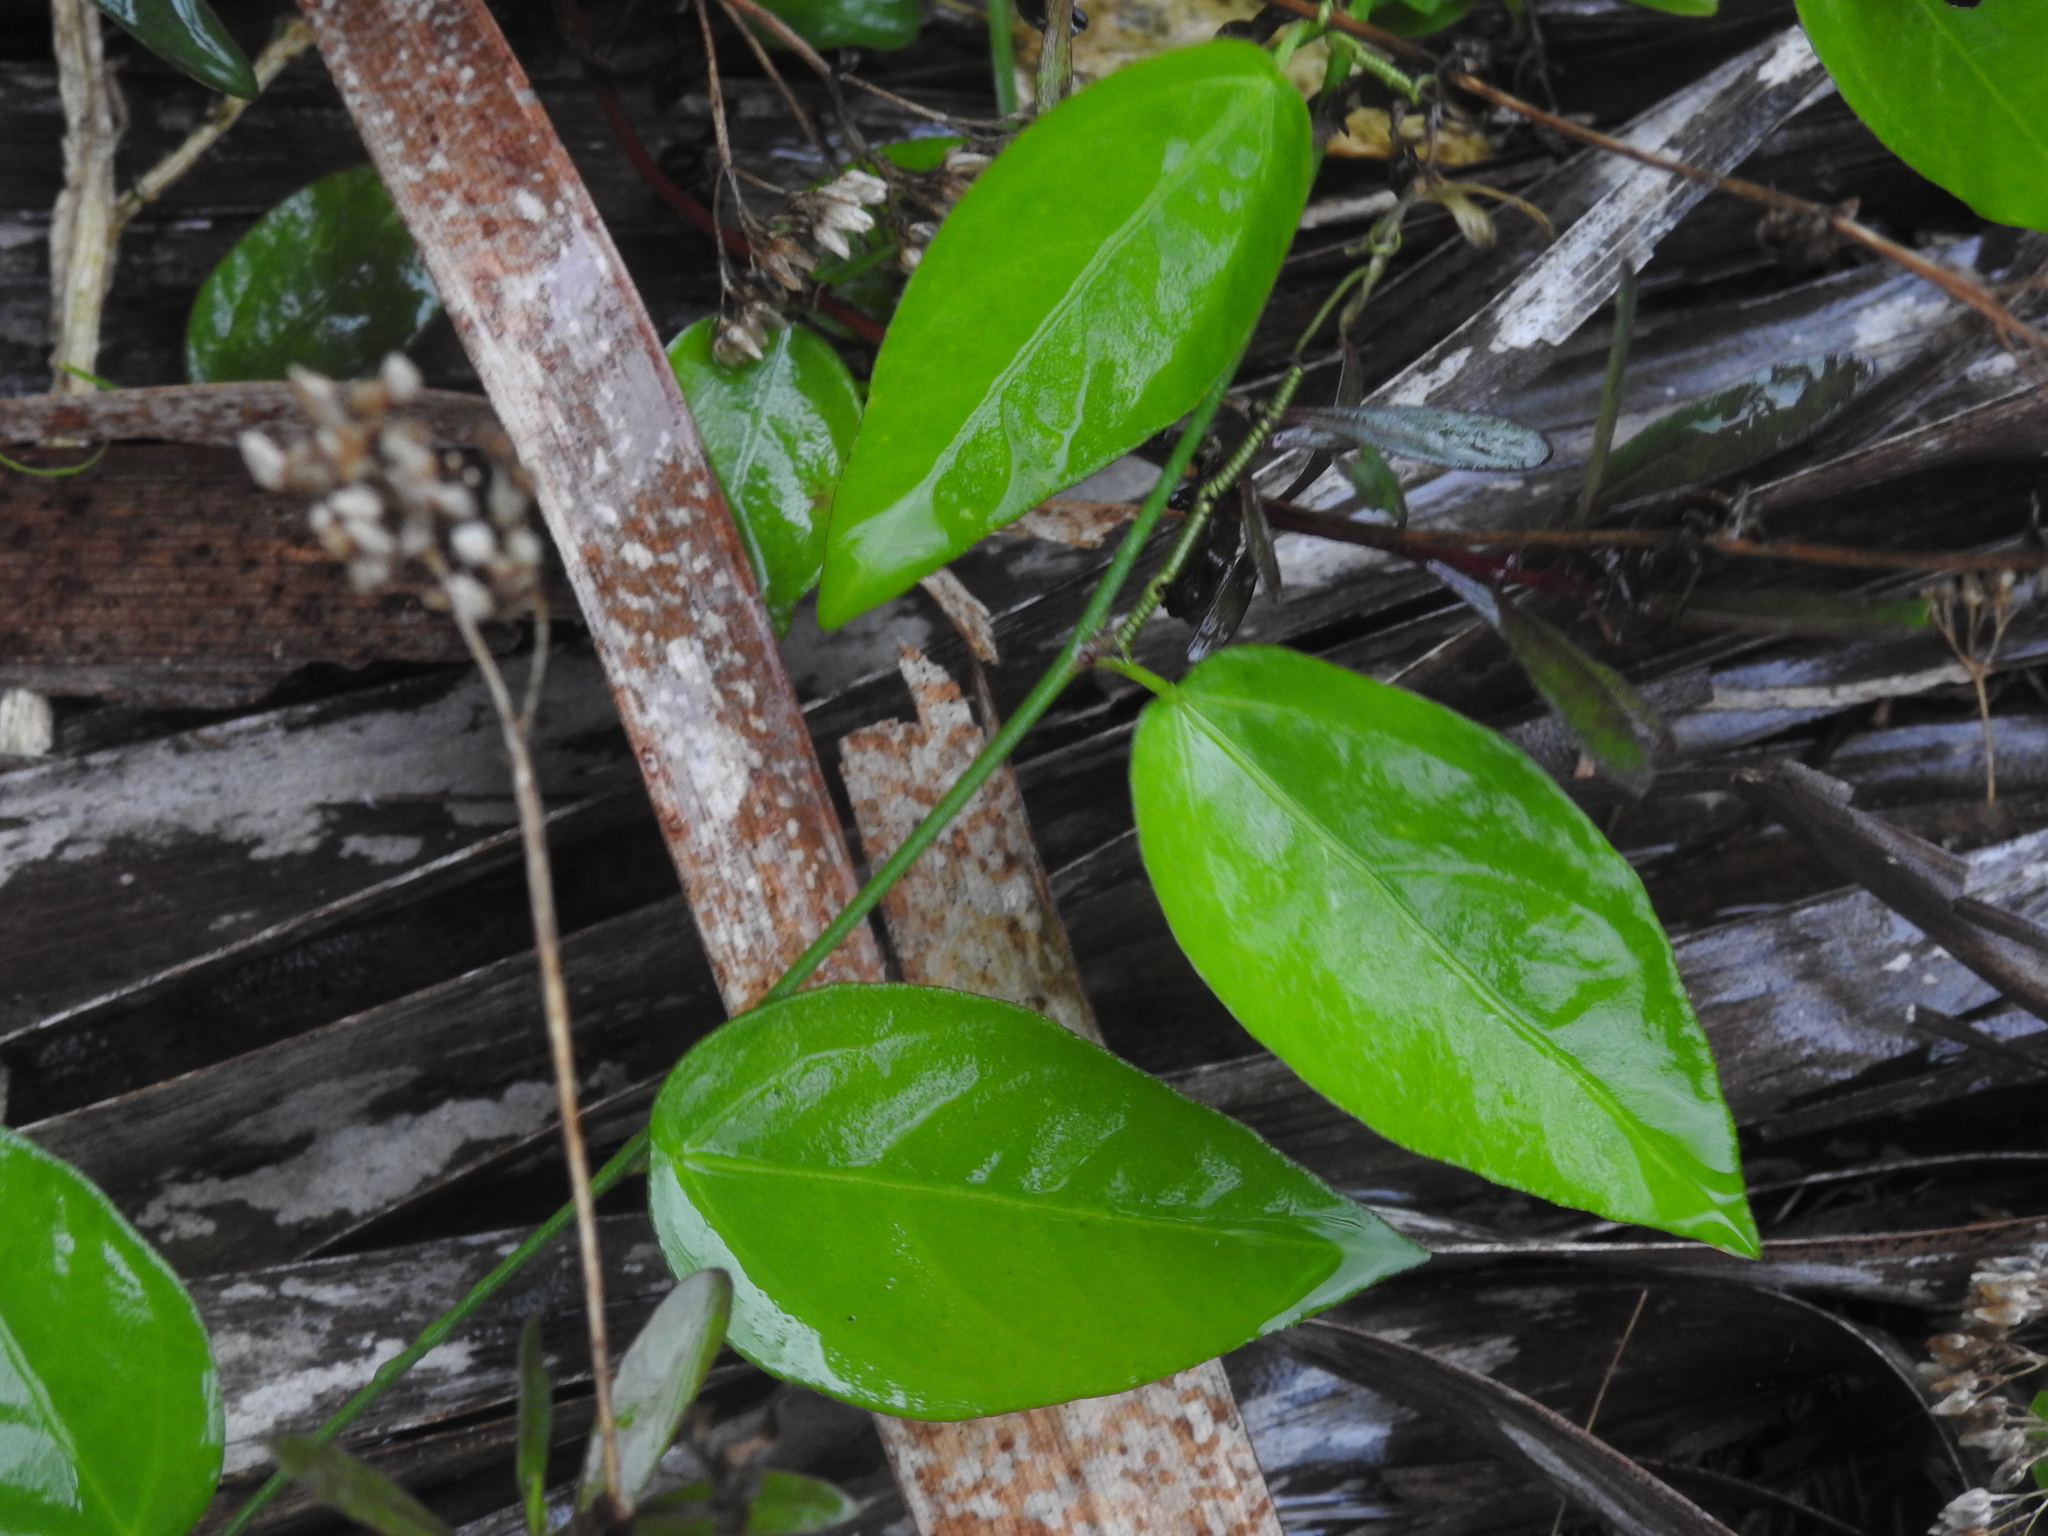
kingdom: Plantae
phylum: Tracheophyta
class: Magnoliopsida
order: Malpighiales
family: Passifloraceae
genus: Passiflora
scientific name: Passiflora pallida
